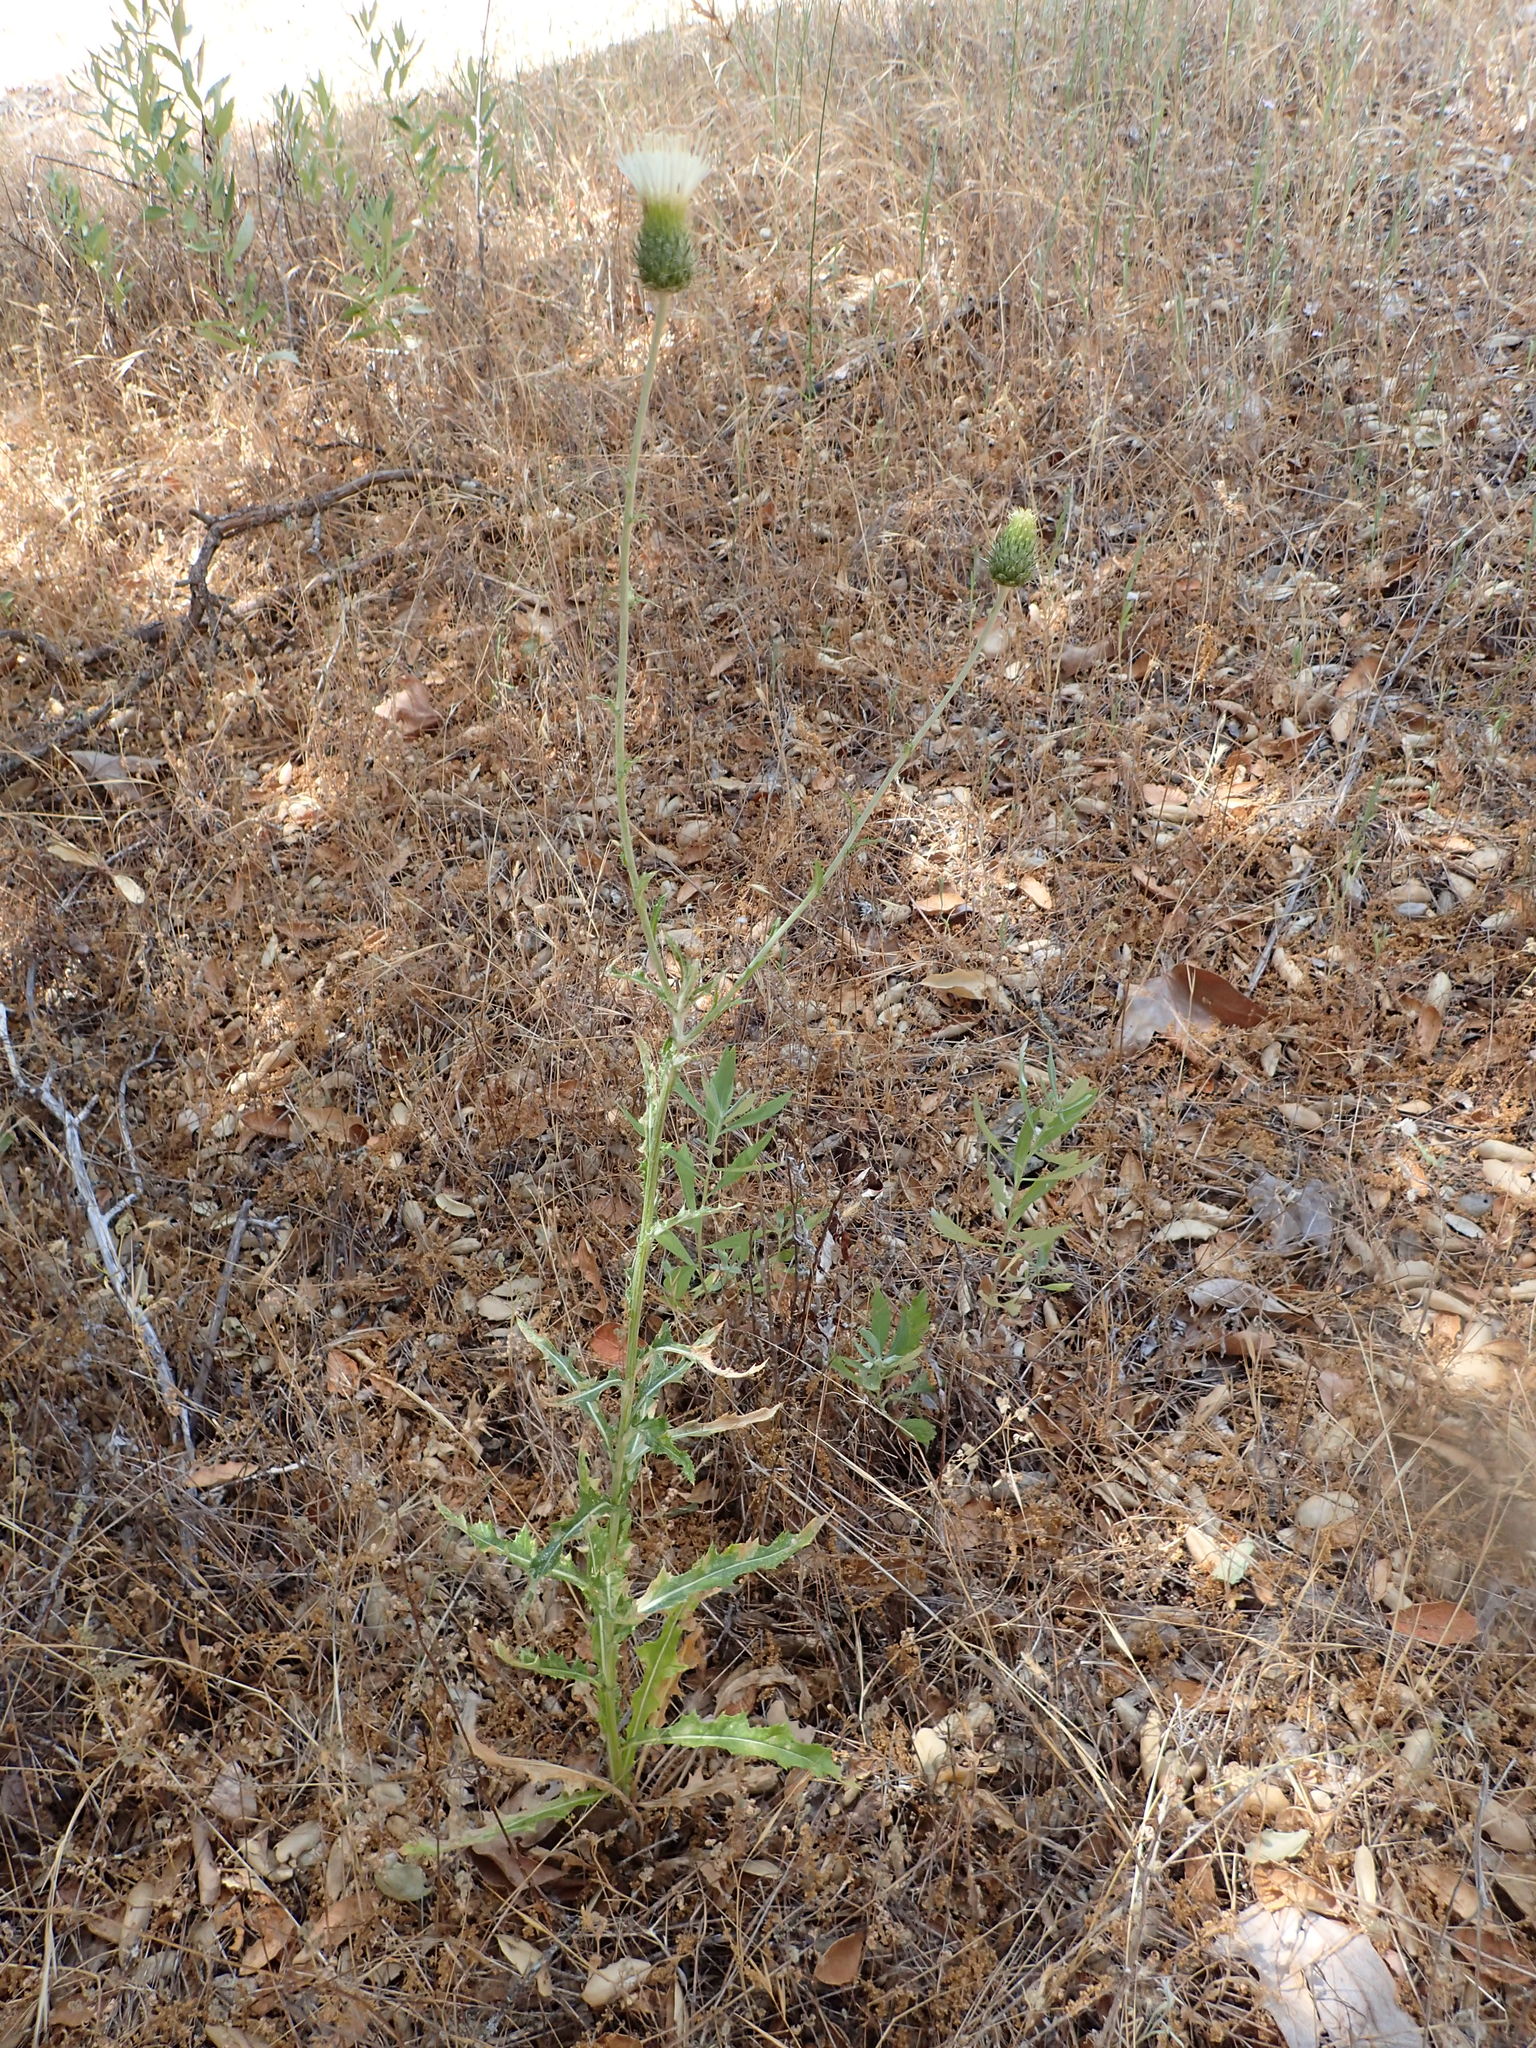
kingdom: Plantae
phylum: Tracheophyta
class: Magnoliopsida
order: Asterales
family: Asteraceae
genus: Cirsium
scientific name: Cirsium occidentale
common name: Western thistle
